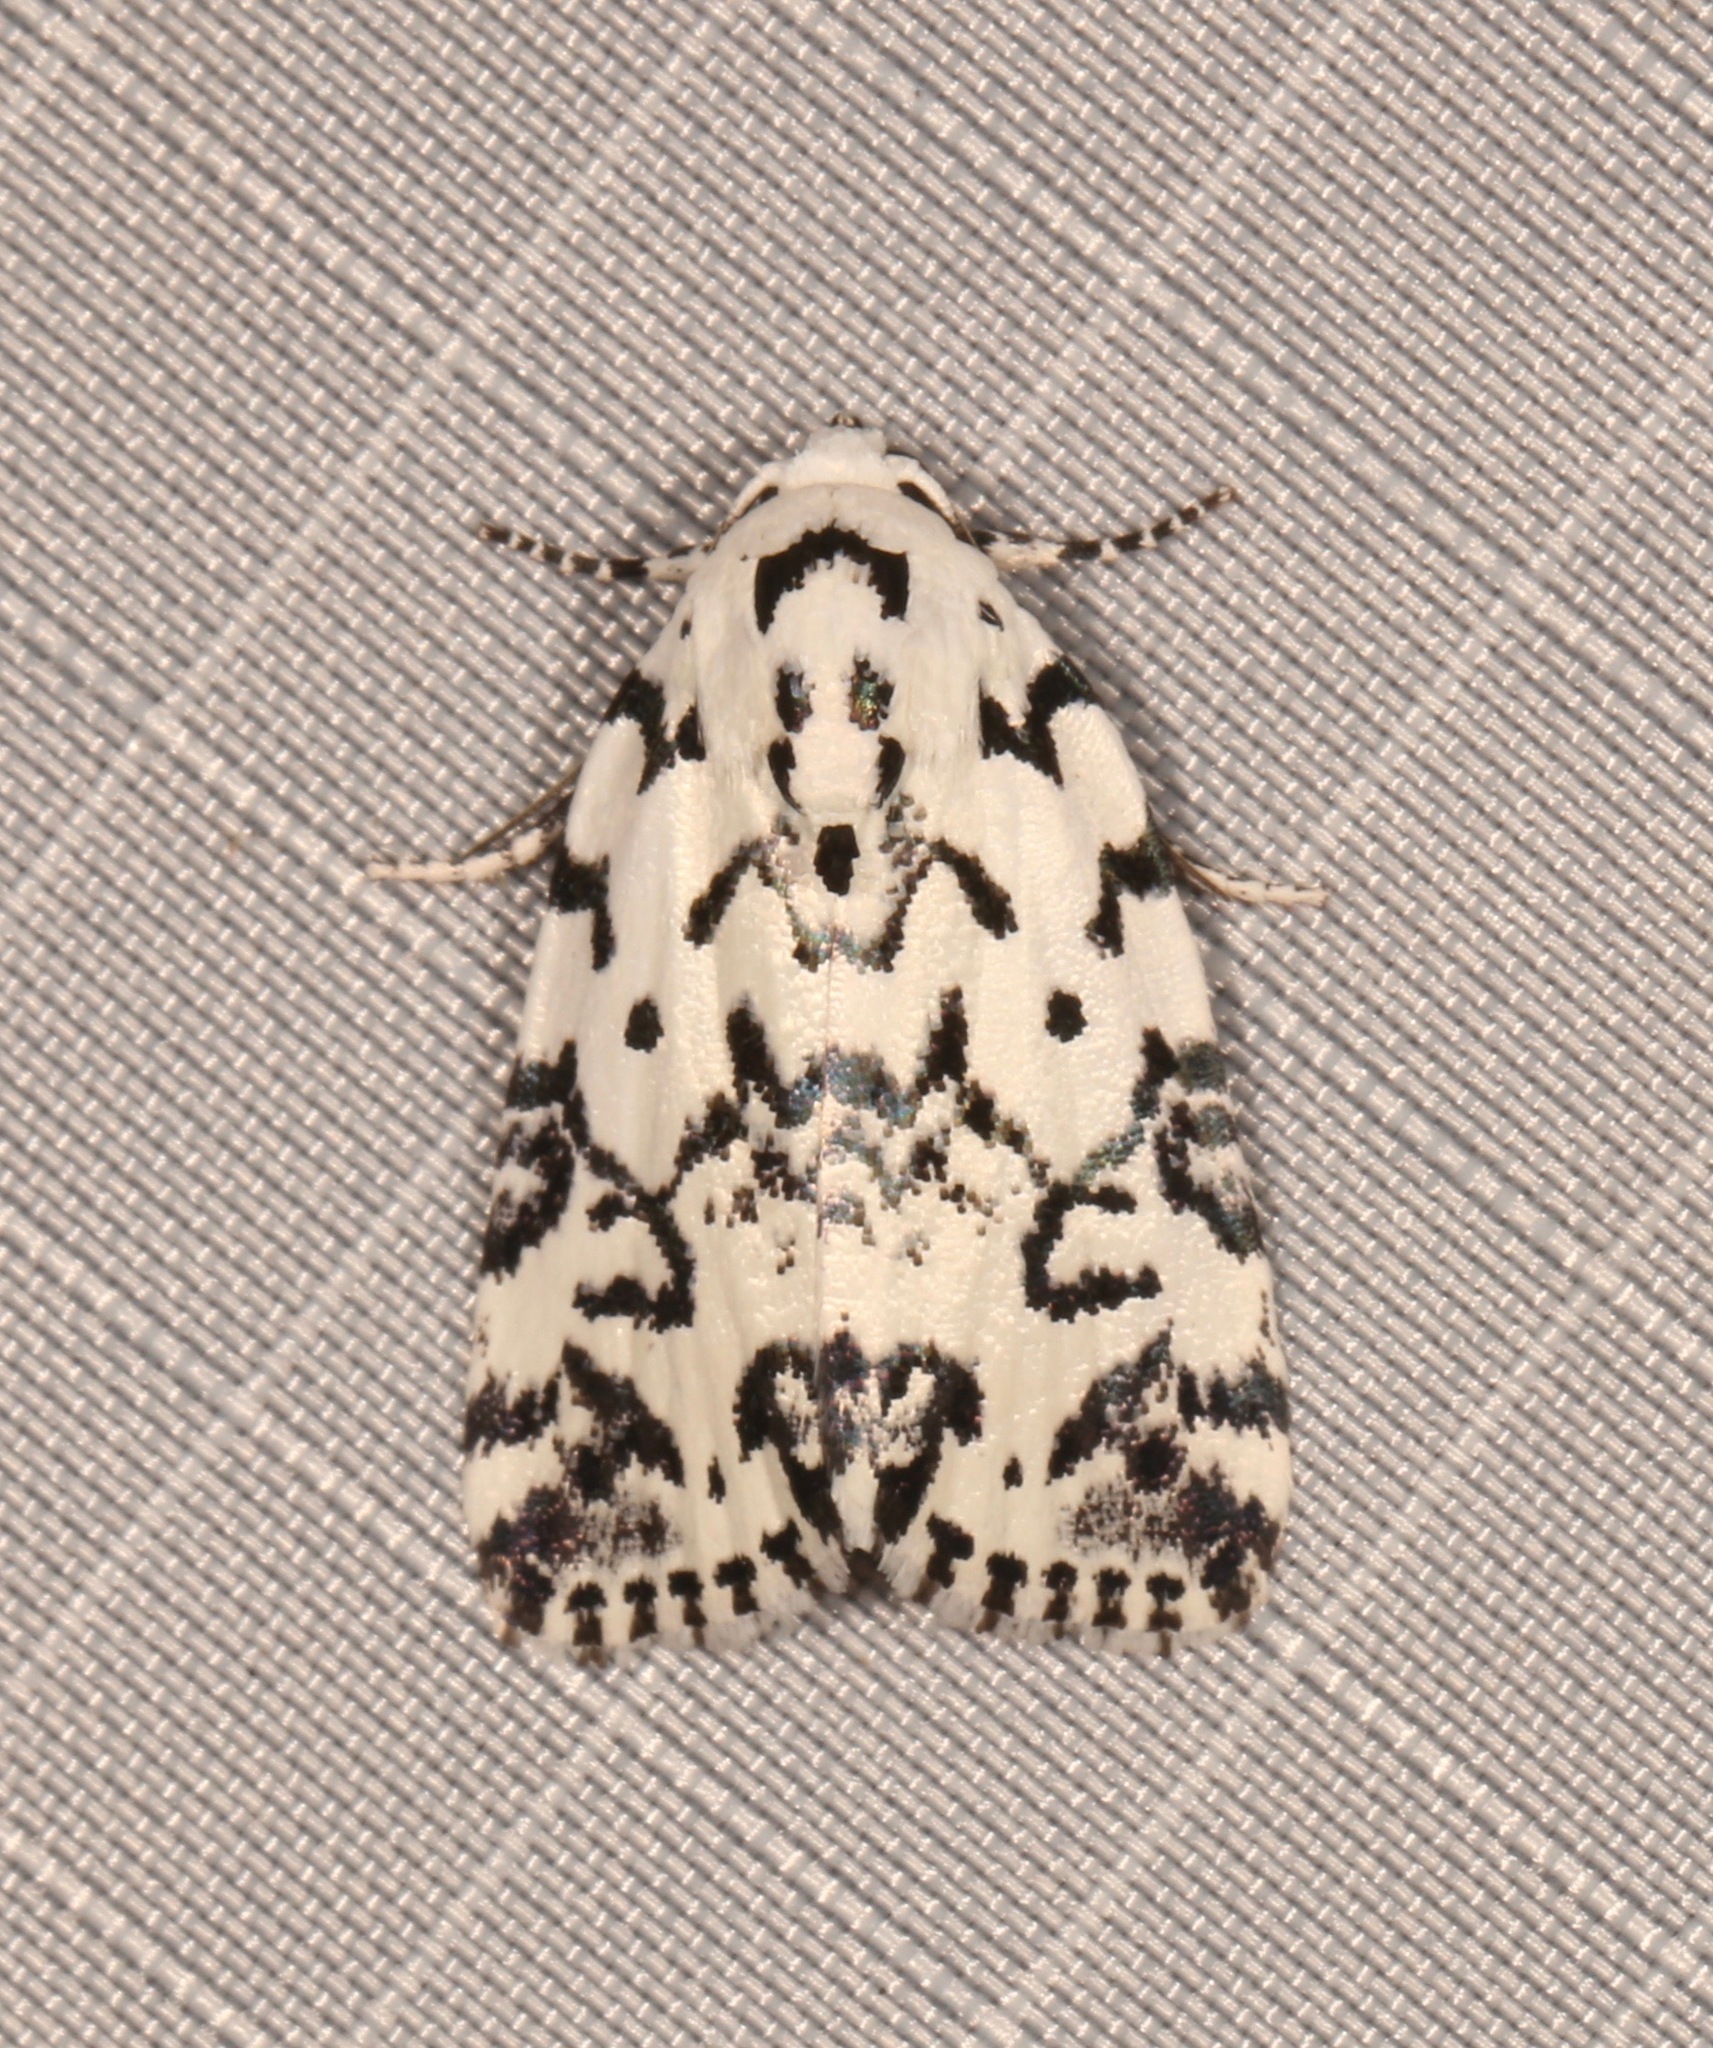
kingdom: Animalia
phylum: Arthropoda
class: Insecta
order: Lepidoptera
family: Noctuidae
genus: Polygrammate
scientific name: Polygrammate hebraeicum
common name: Hebrew moth
